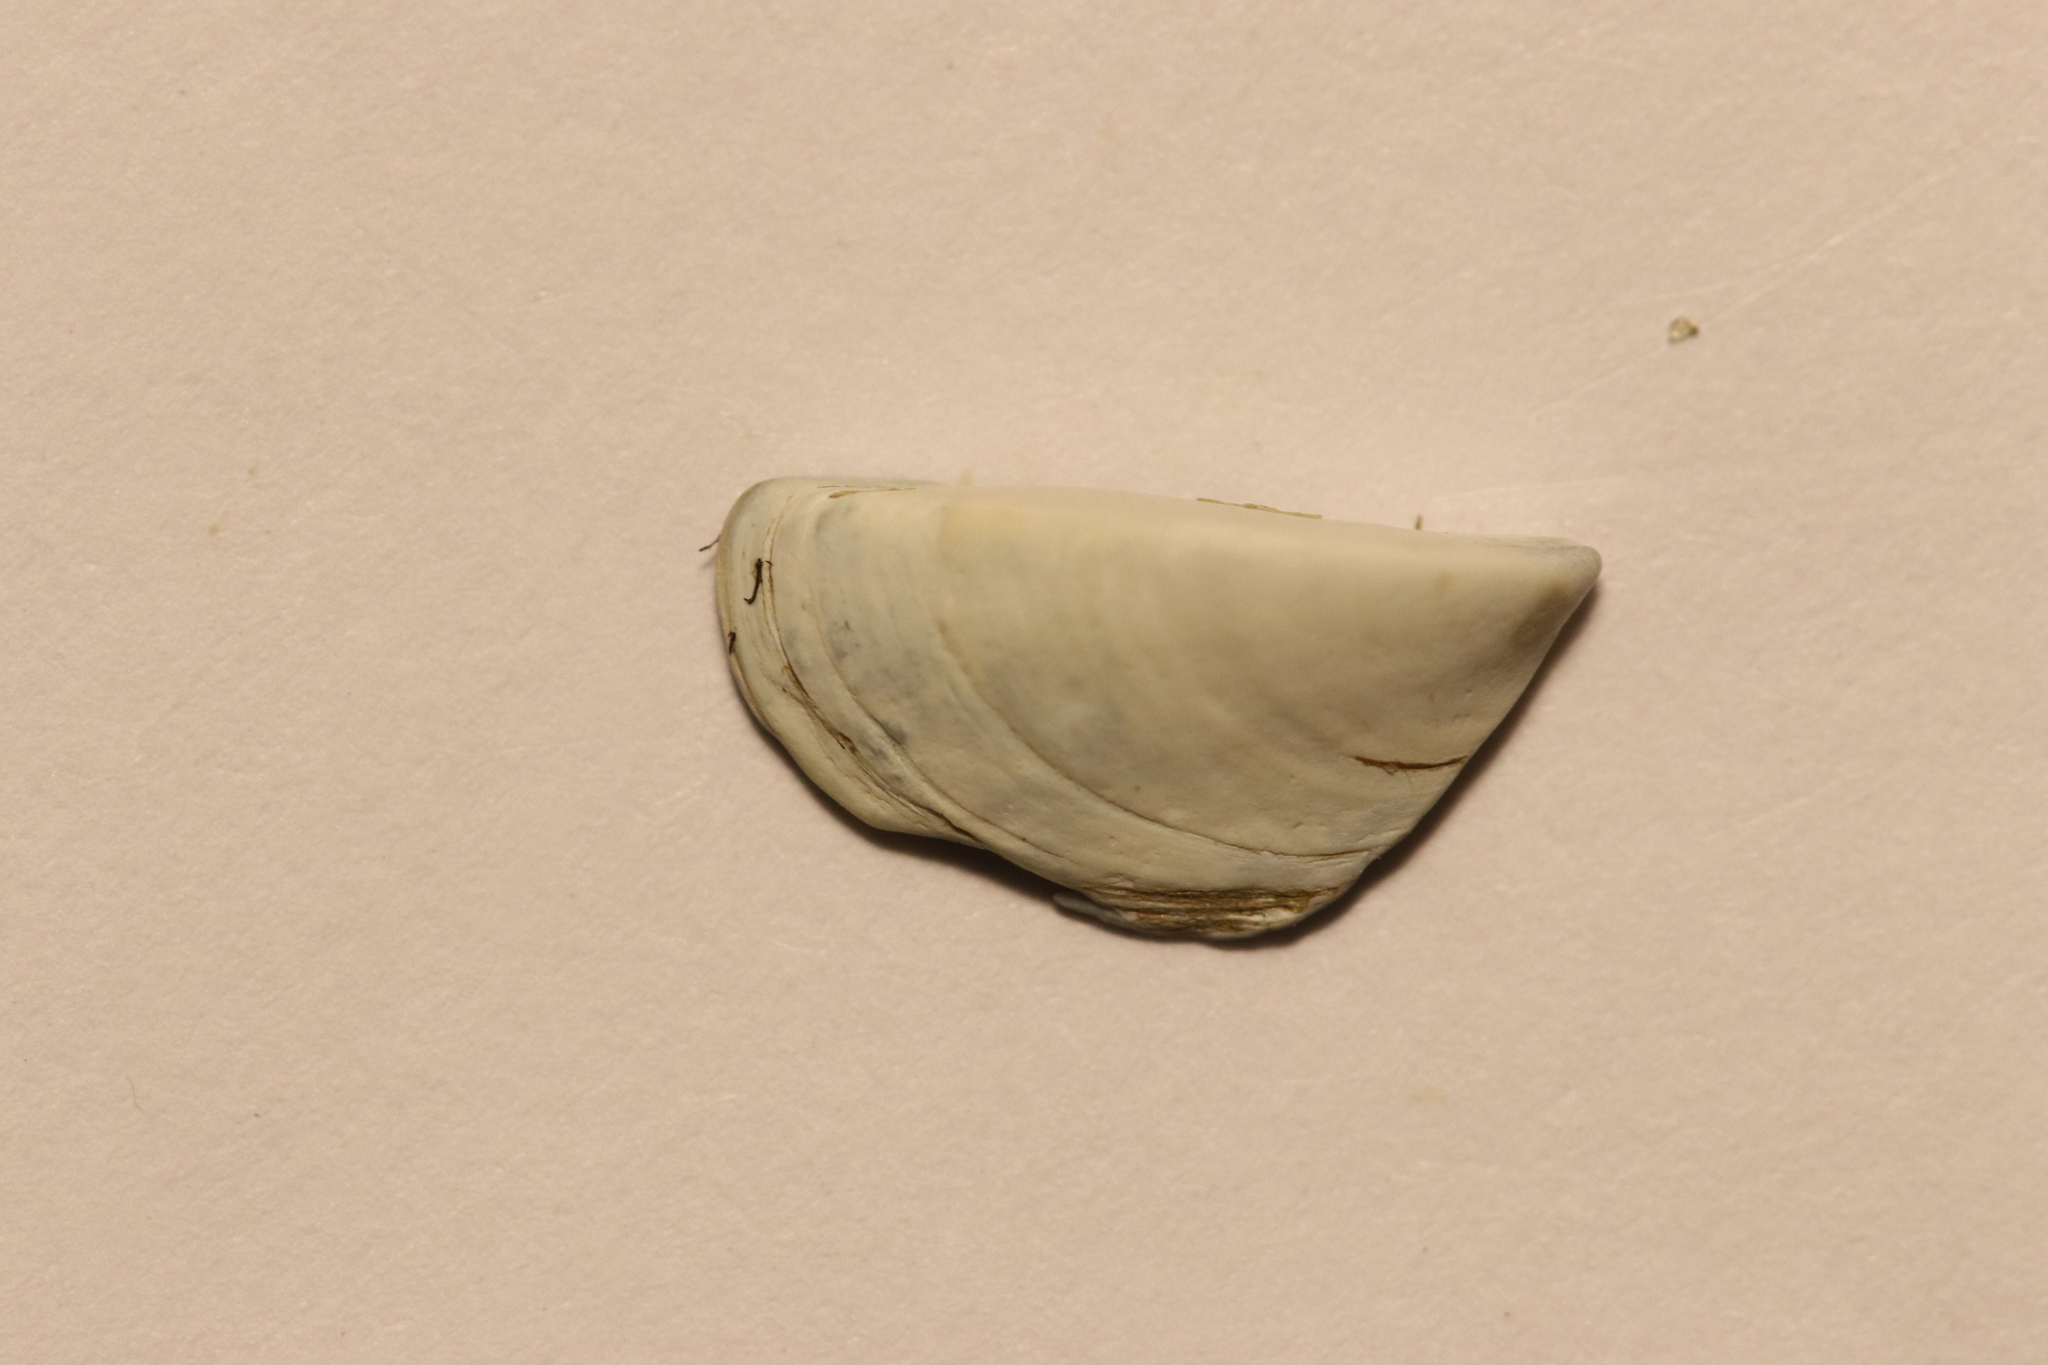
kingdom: Animalia
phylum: Mollusca
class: Bivalvia
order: Myida
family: Dreissenidae
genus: Dreissena
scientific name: Dreissena polymorpha
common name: Zebra mussel
